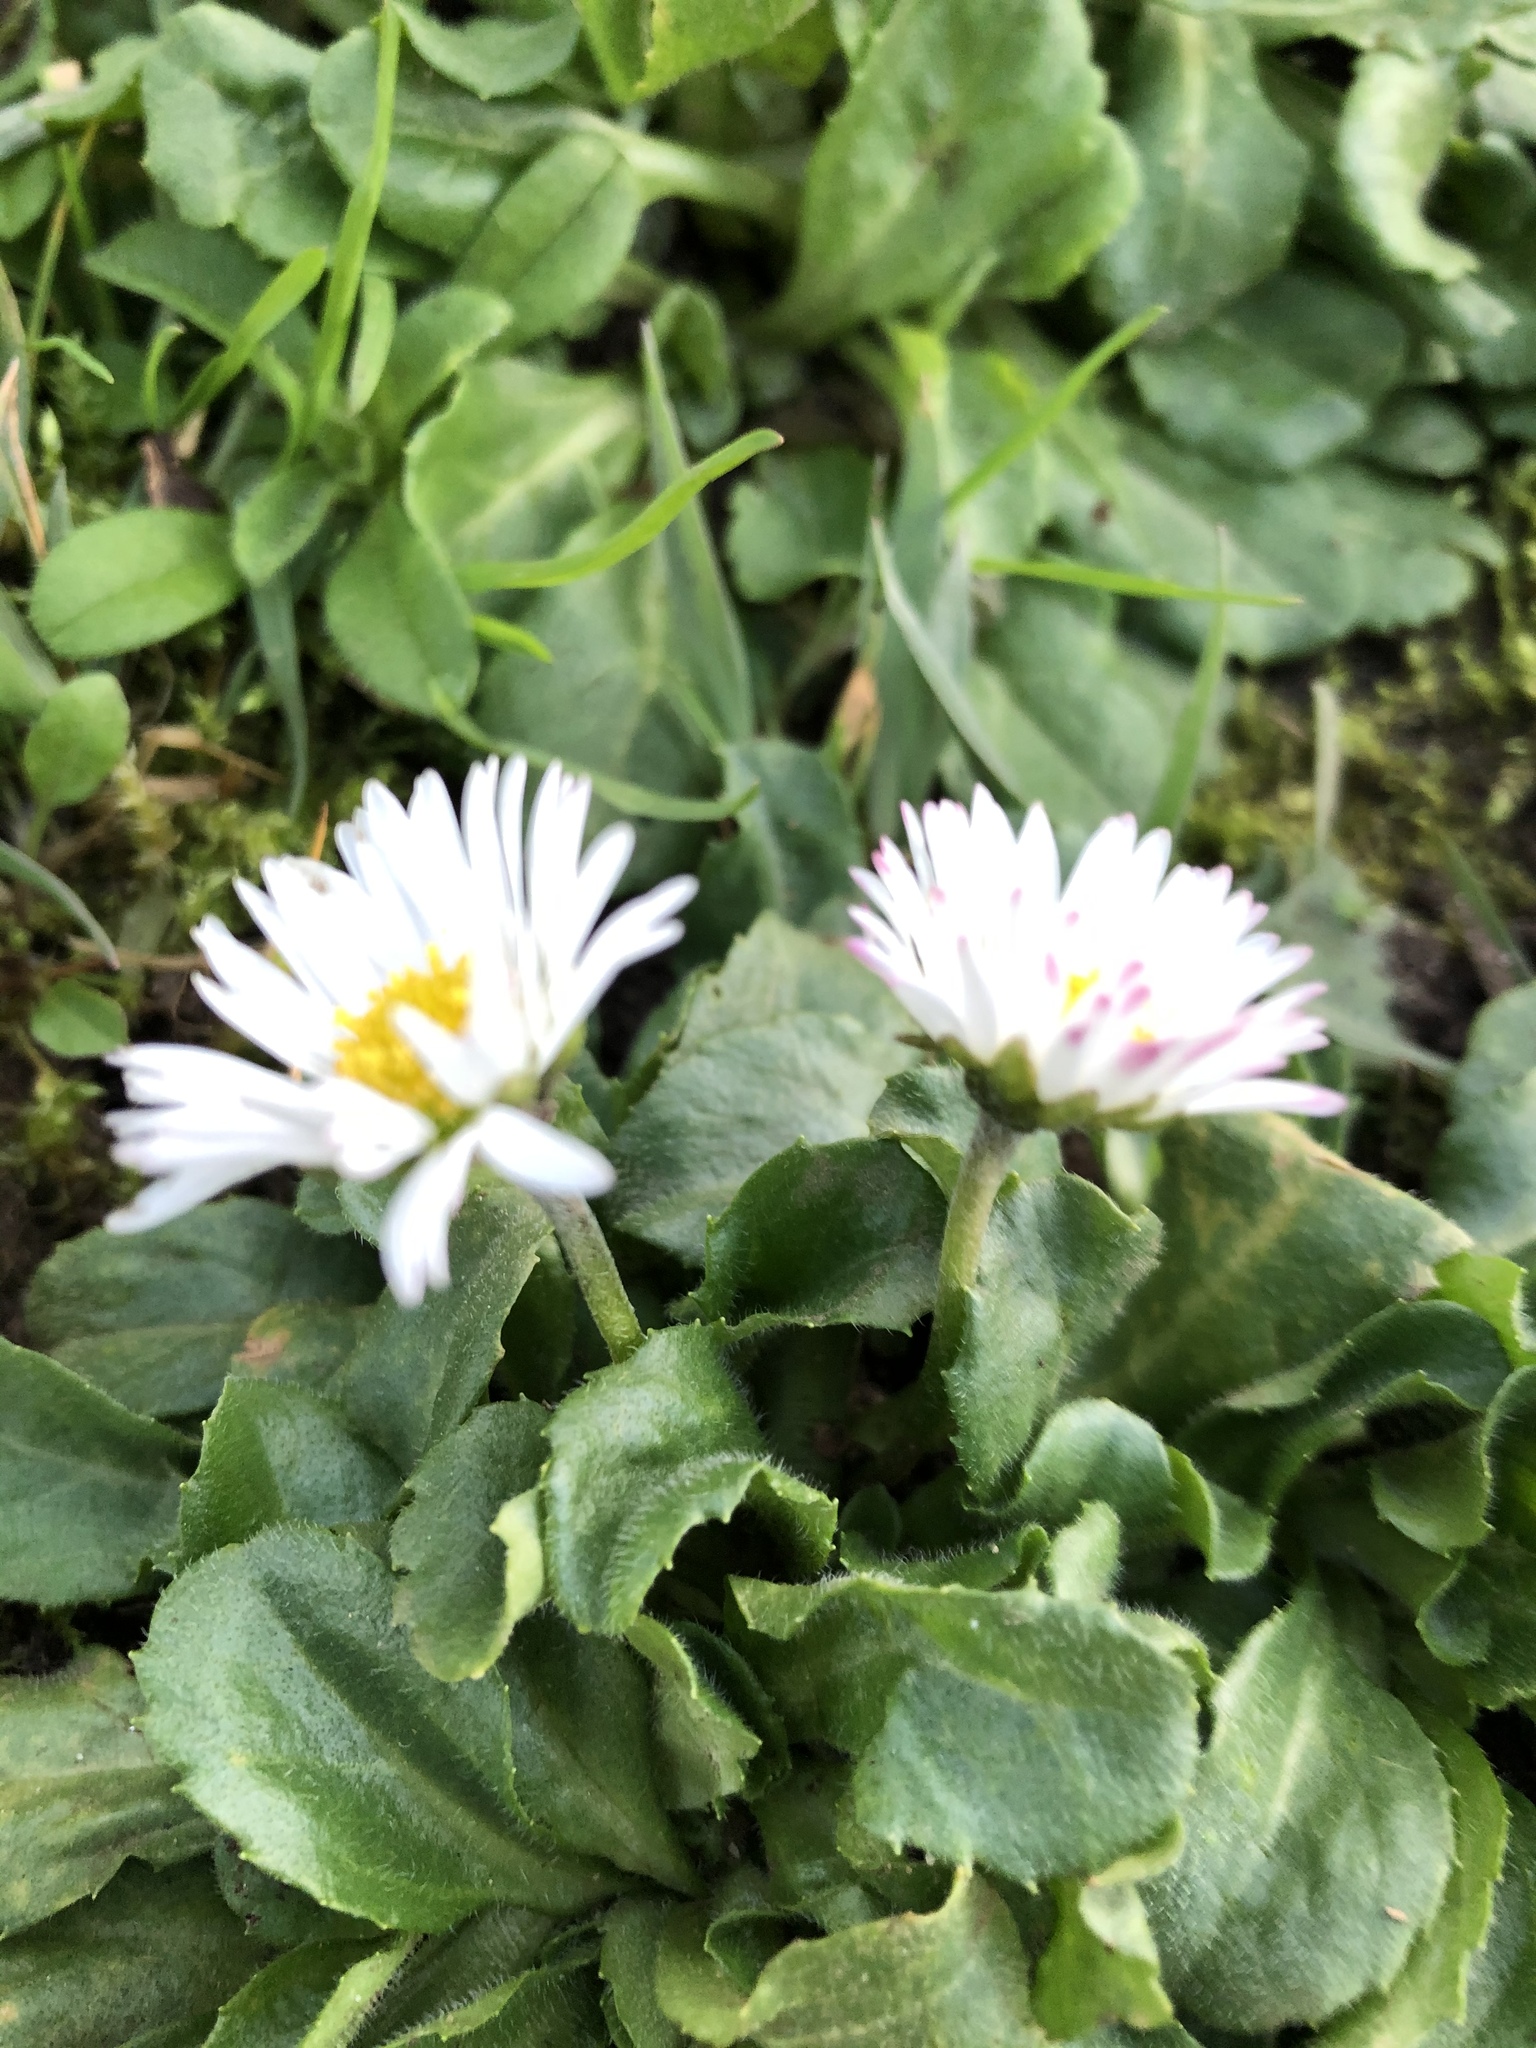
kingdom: Plantae
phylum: Tracheophyta
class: Magnoliopsida
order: Asterales
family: Asteraceae
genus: Bellis
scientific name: Bellis perennis
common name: Lawndaisy
